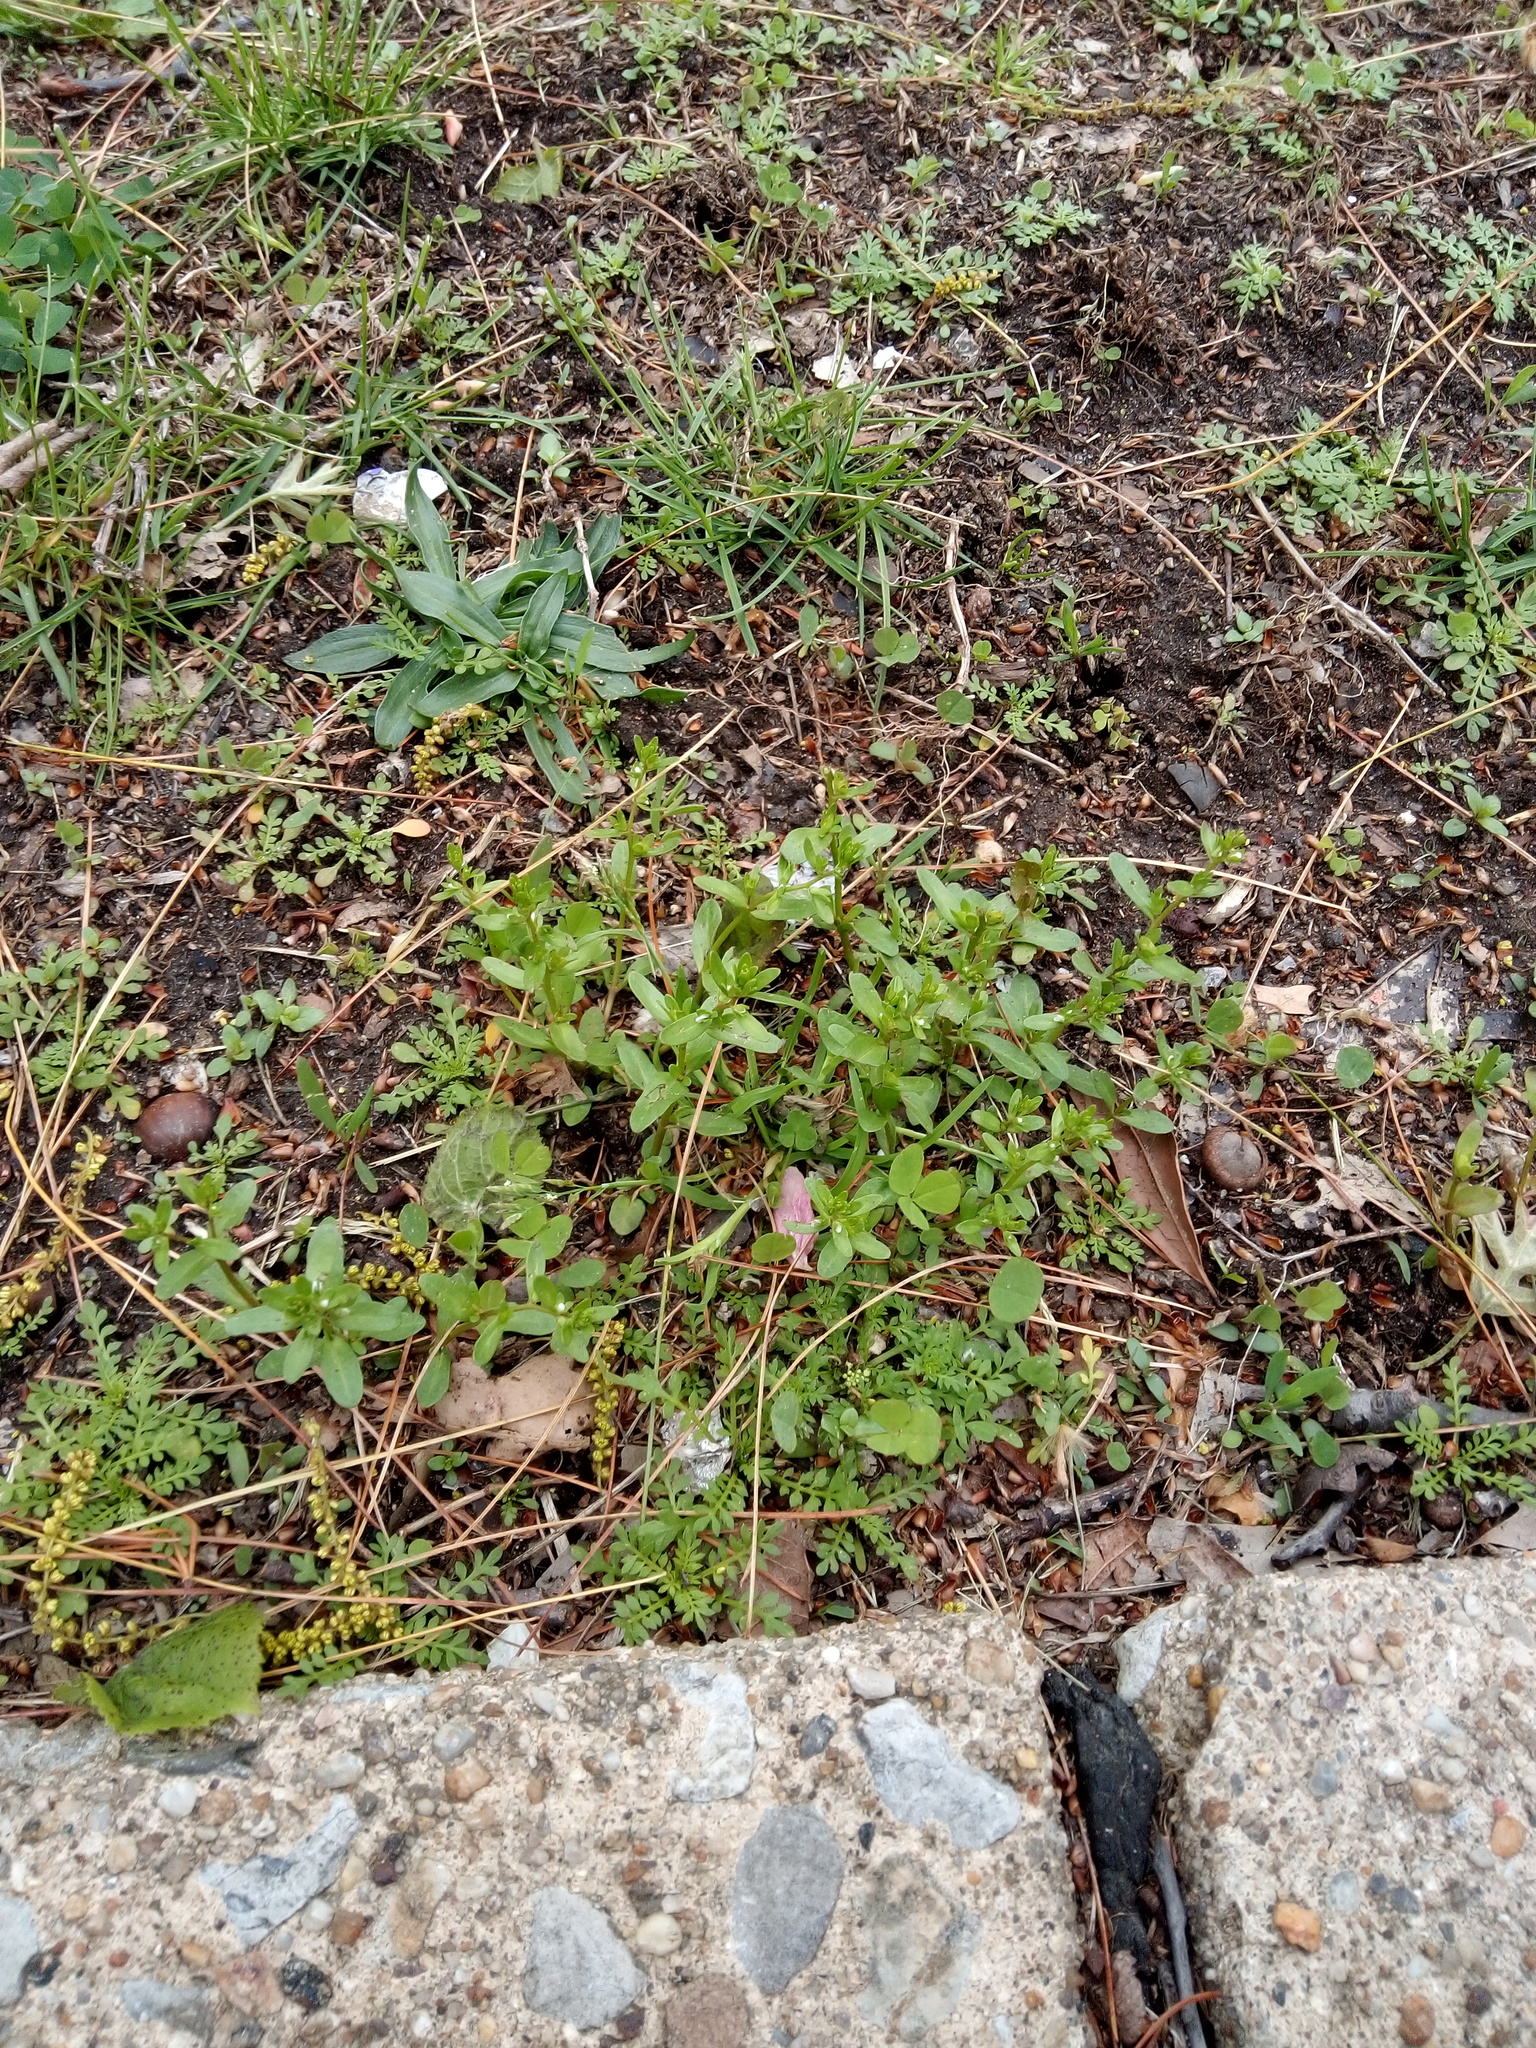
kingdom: Plantae
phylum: Tracheophyta
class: Magnoliopsida
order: Lamiales
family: Plantaginaceae
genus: Veronica
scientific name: Veronica peregrina
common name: Neckweed
